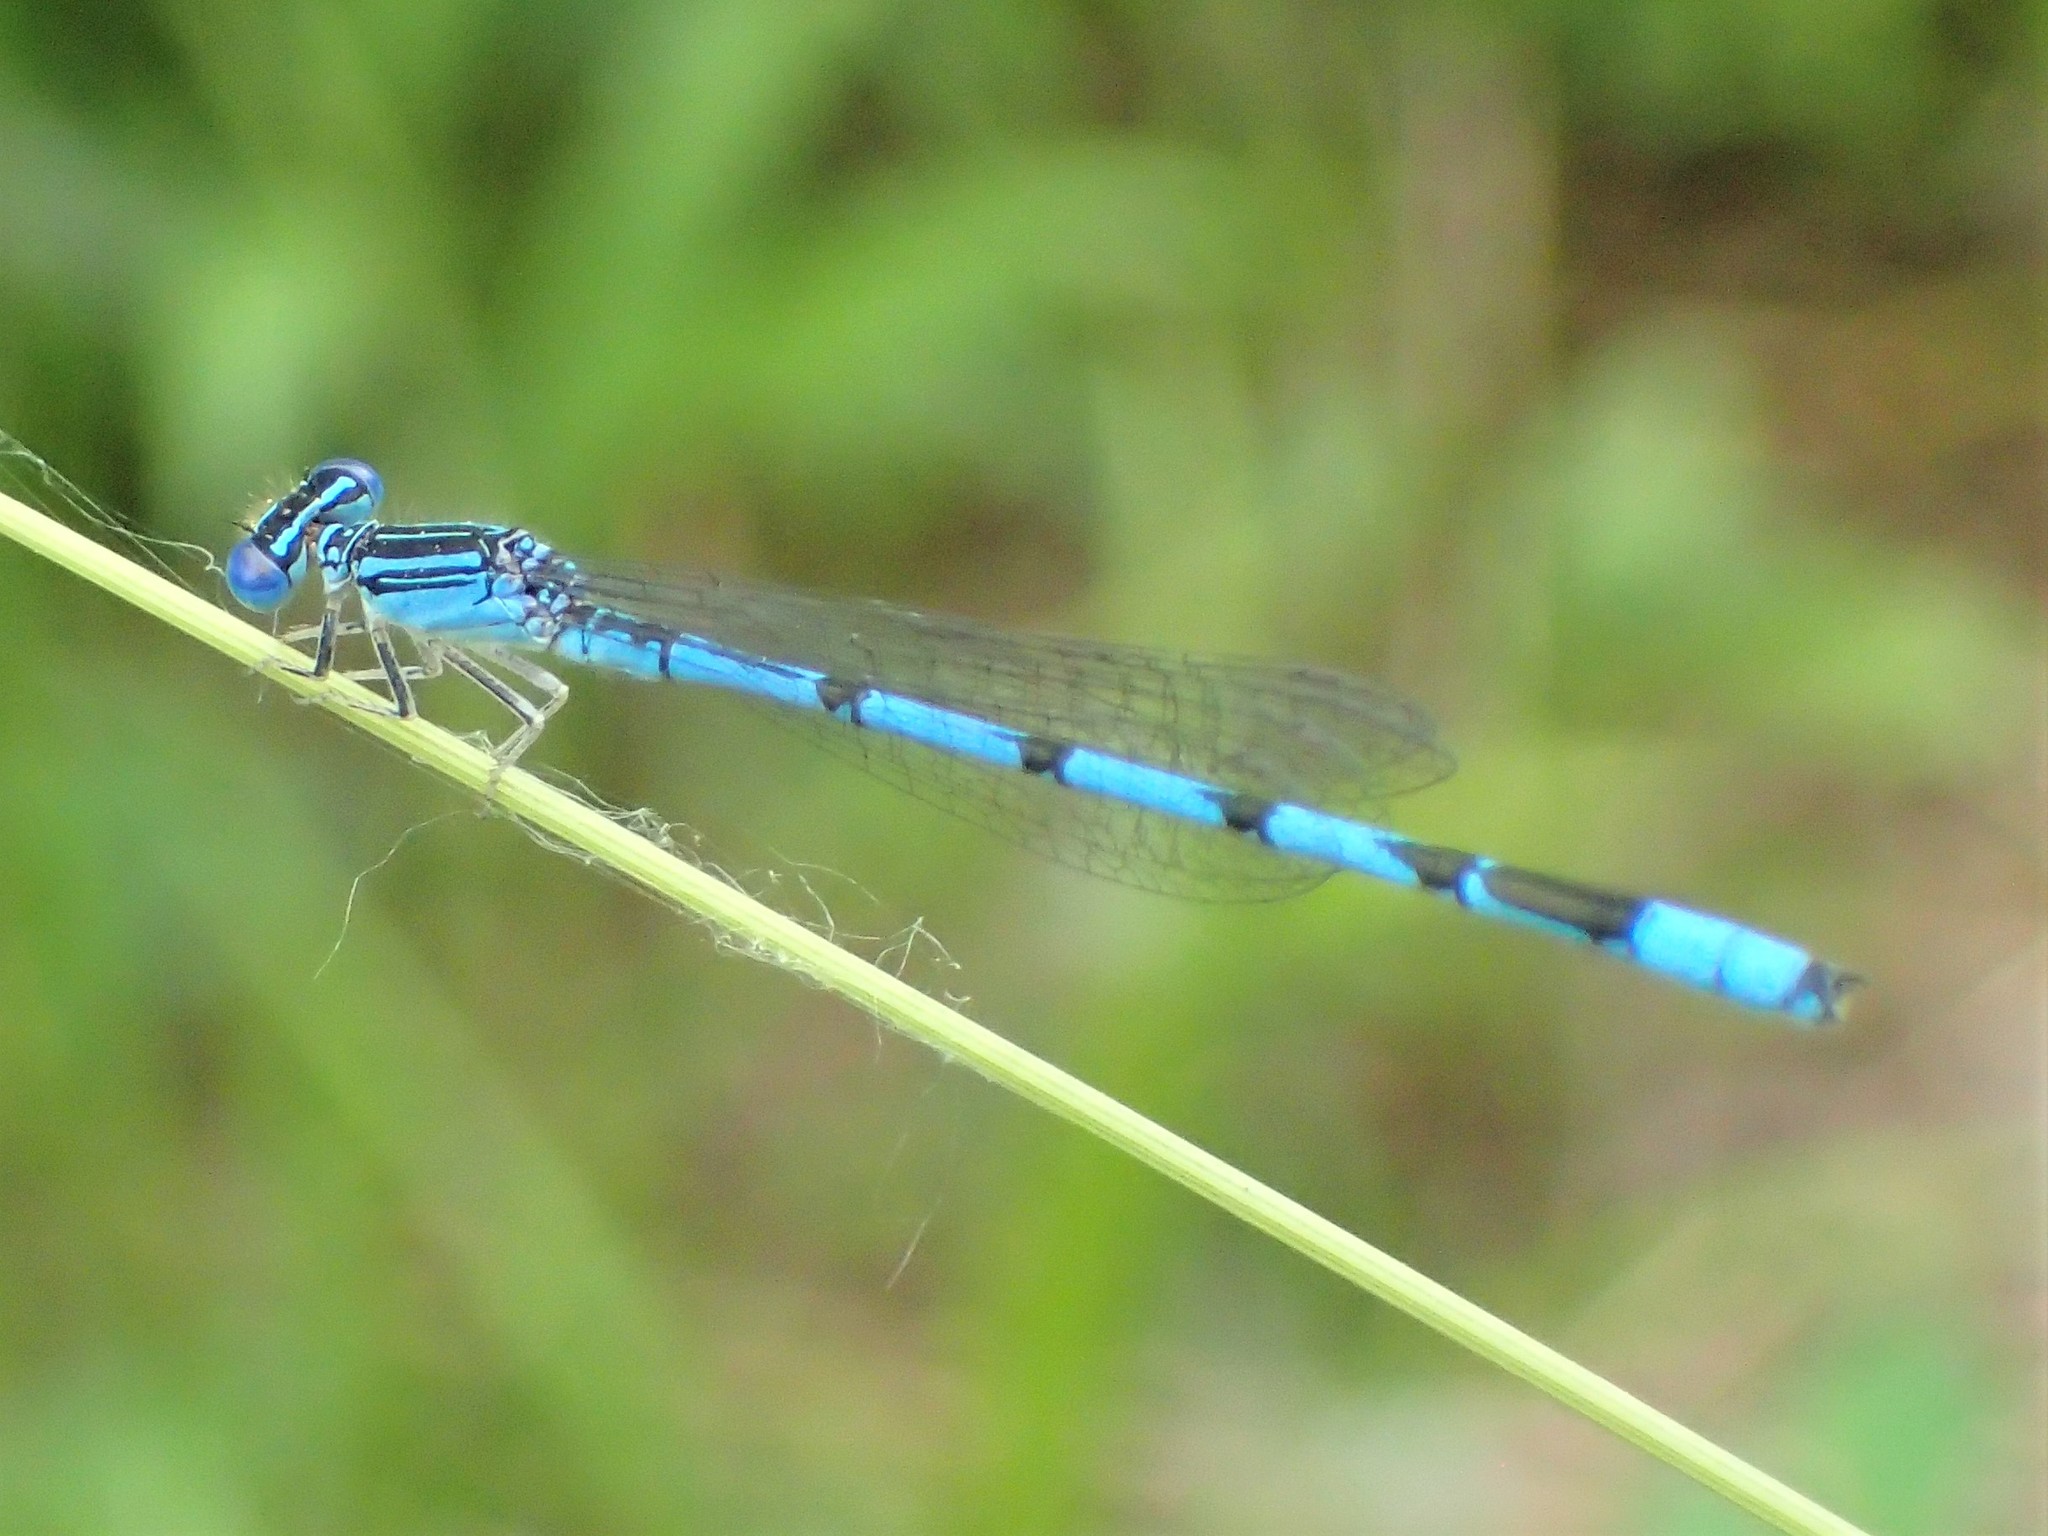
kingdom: Animalia
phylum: Arthropoda
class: Insecta
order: Odonata
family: Coenagrionidae
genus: Enallagma
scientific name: Enallagma basidens
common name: Double-striped bluet
